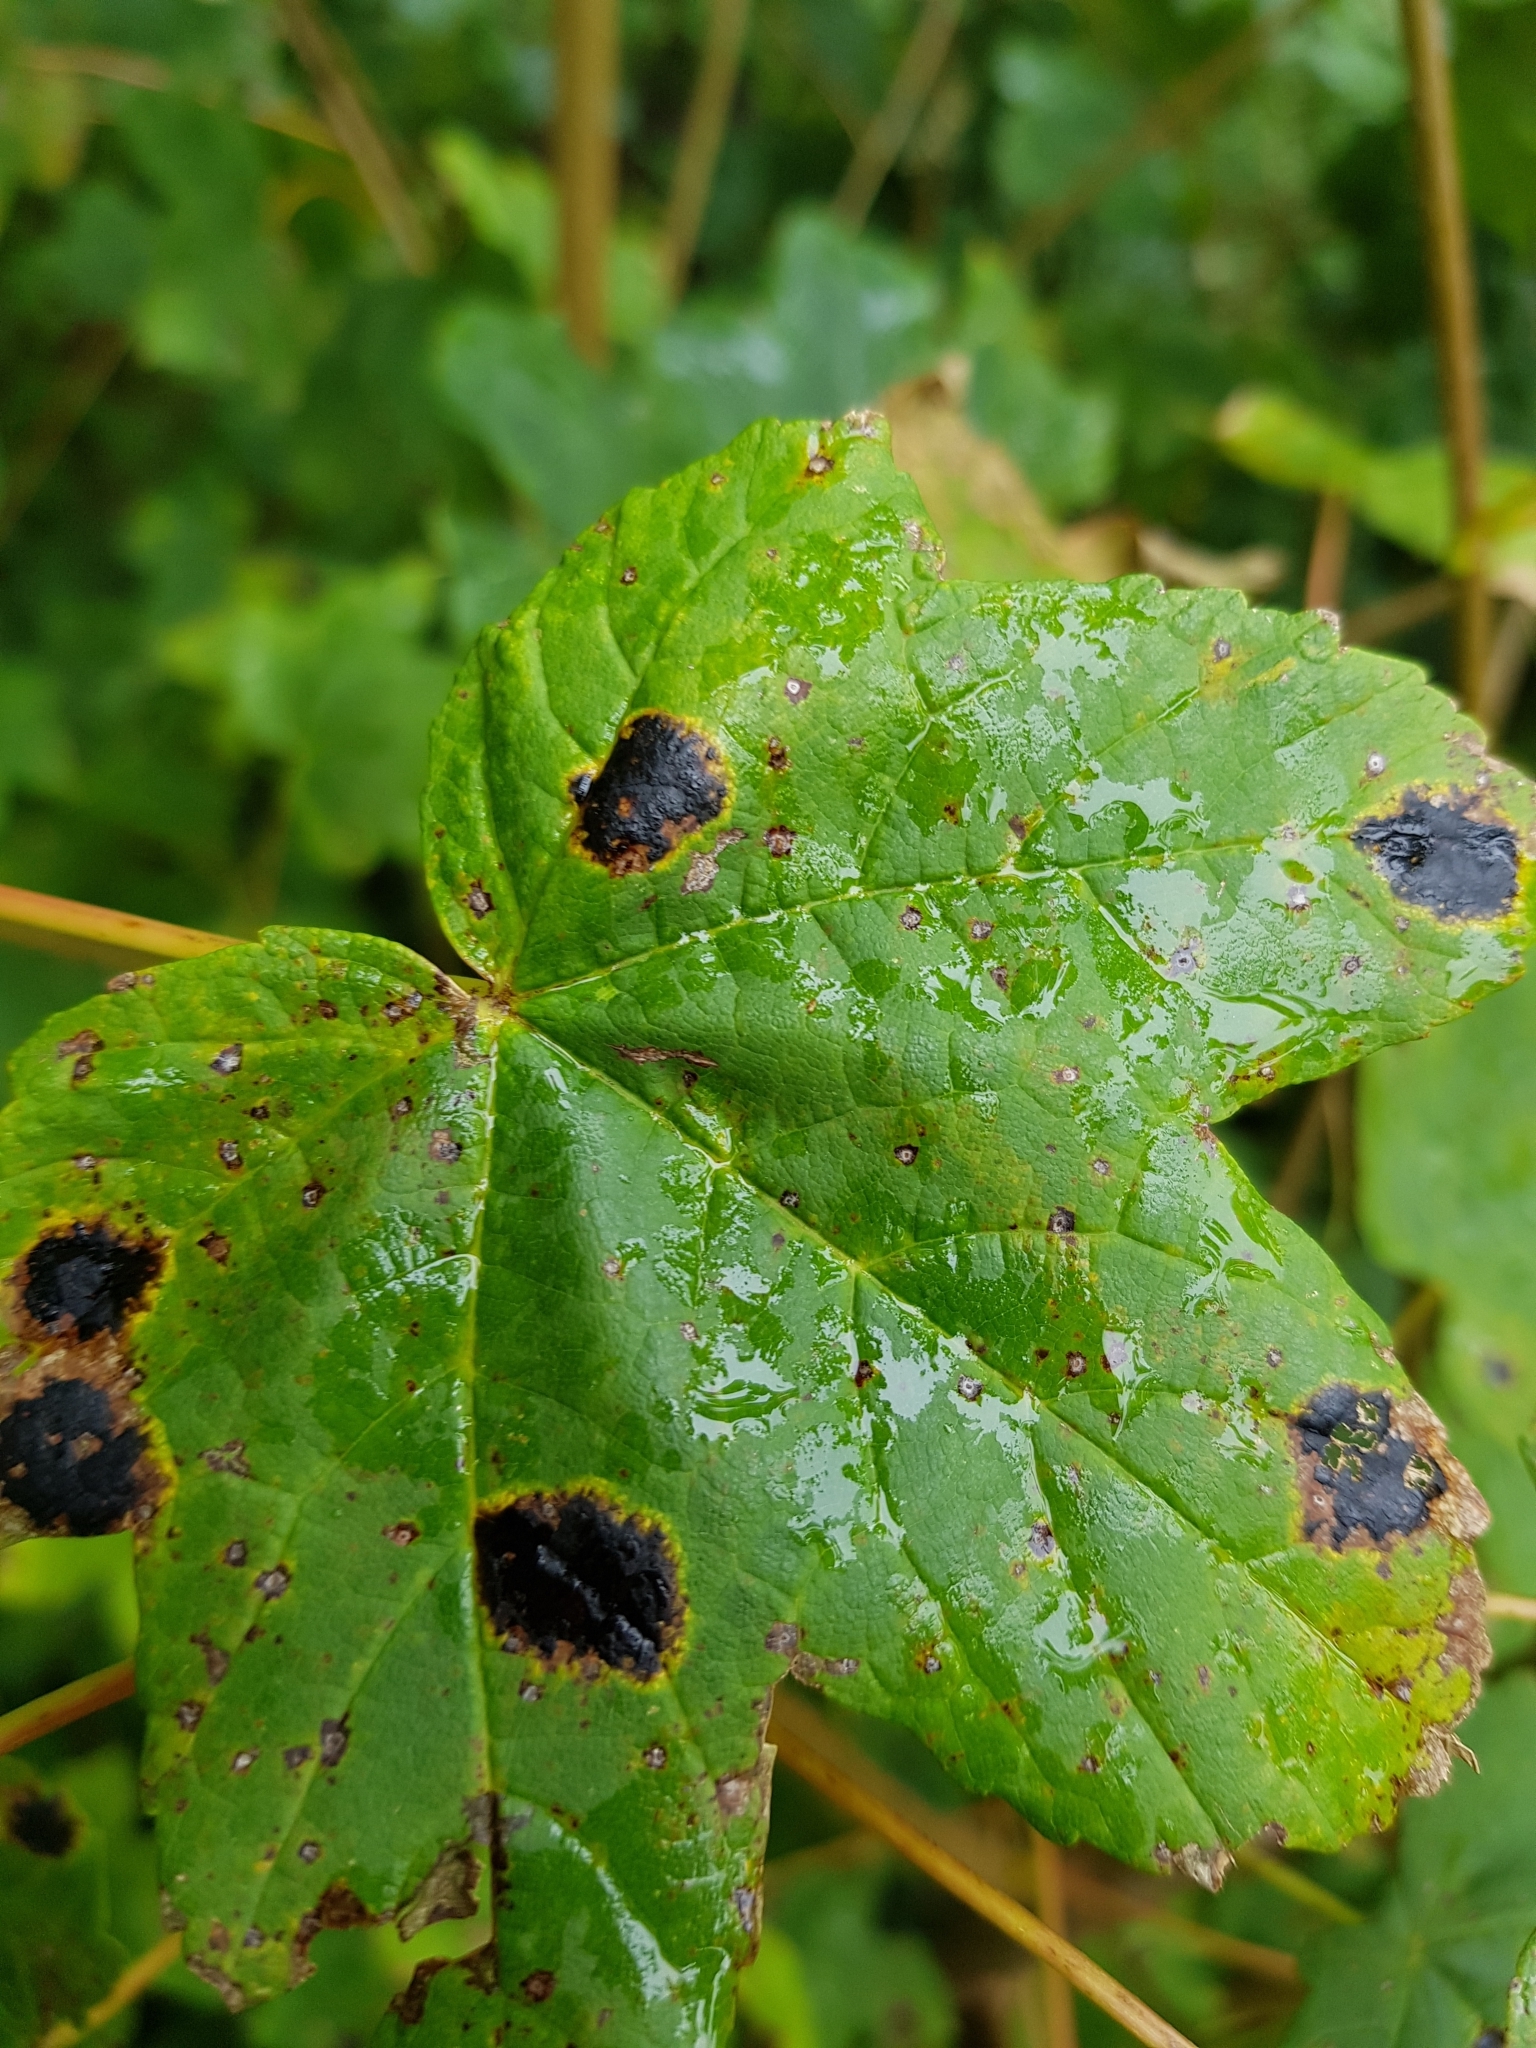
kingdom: Fungi
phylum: Ascomycota
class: Leotiomycetes
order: Rhytismatales
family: Rhytismataceae
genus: Rhytisma
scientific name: Rhytisma acerinum
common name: European tar spot
